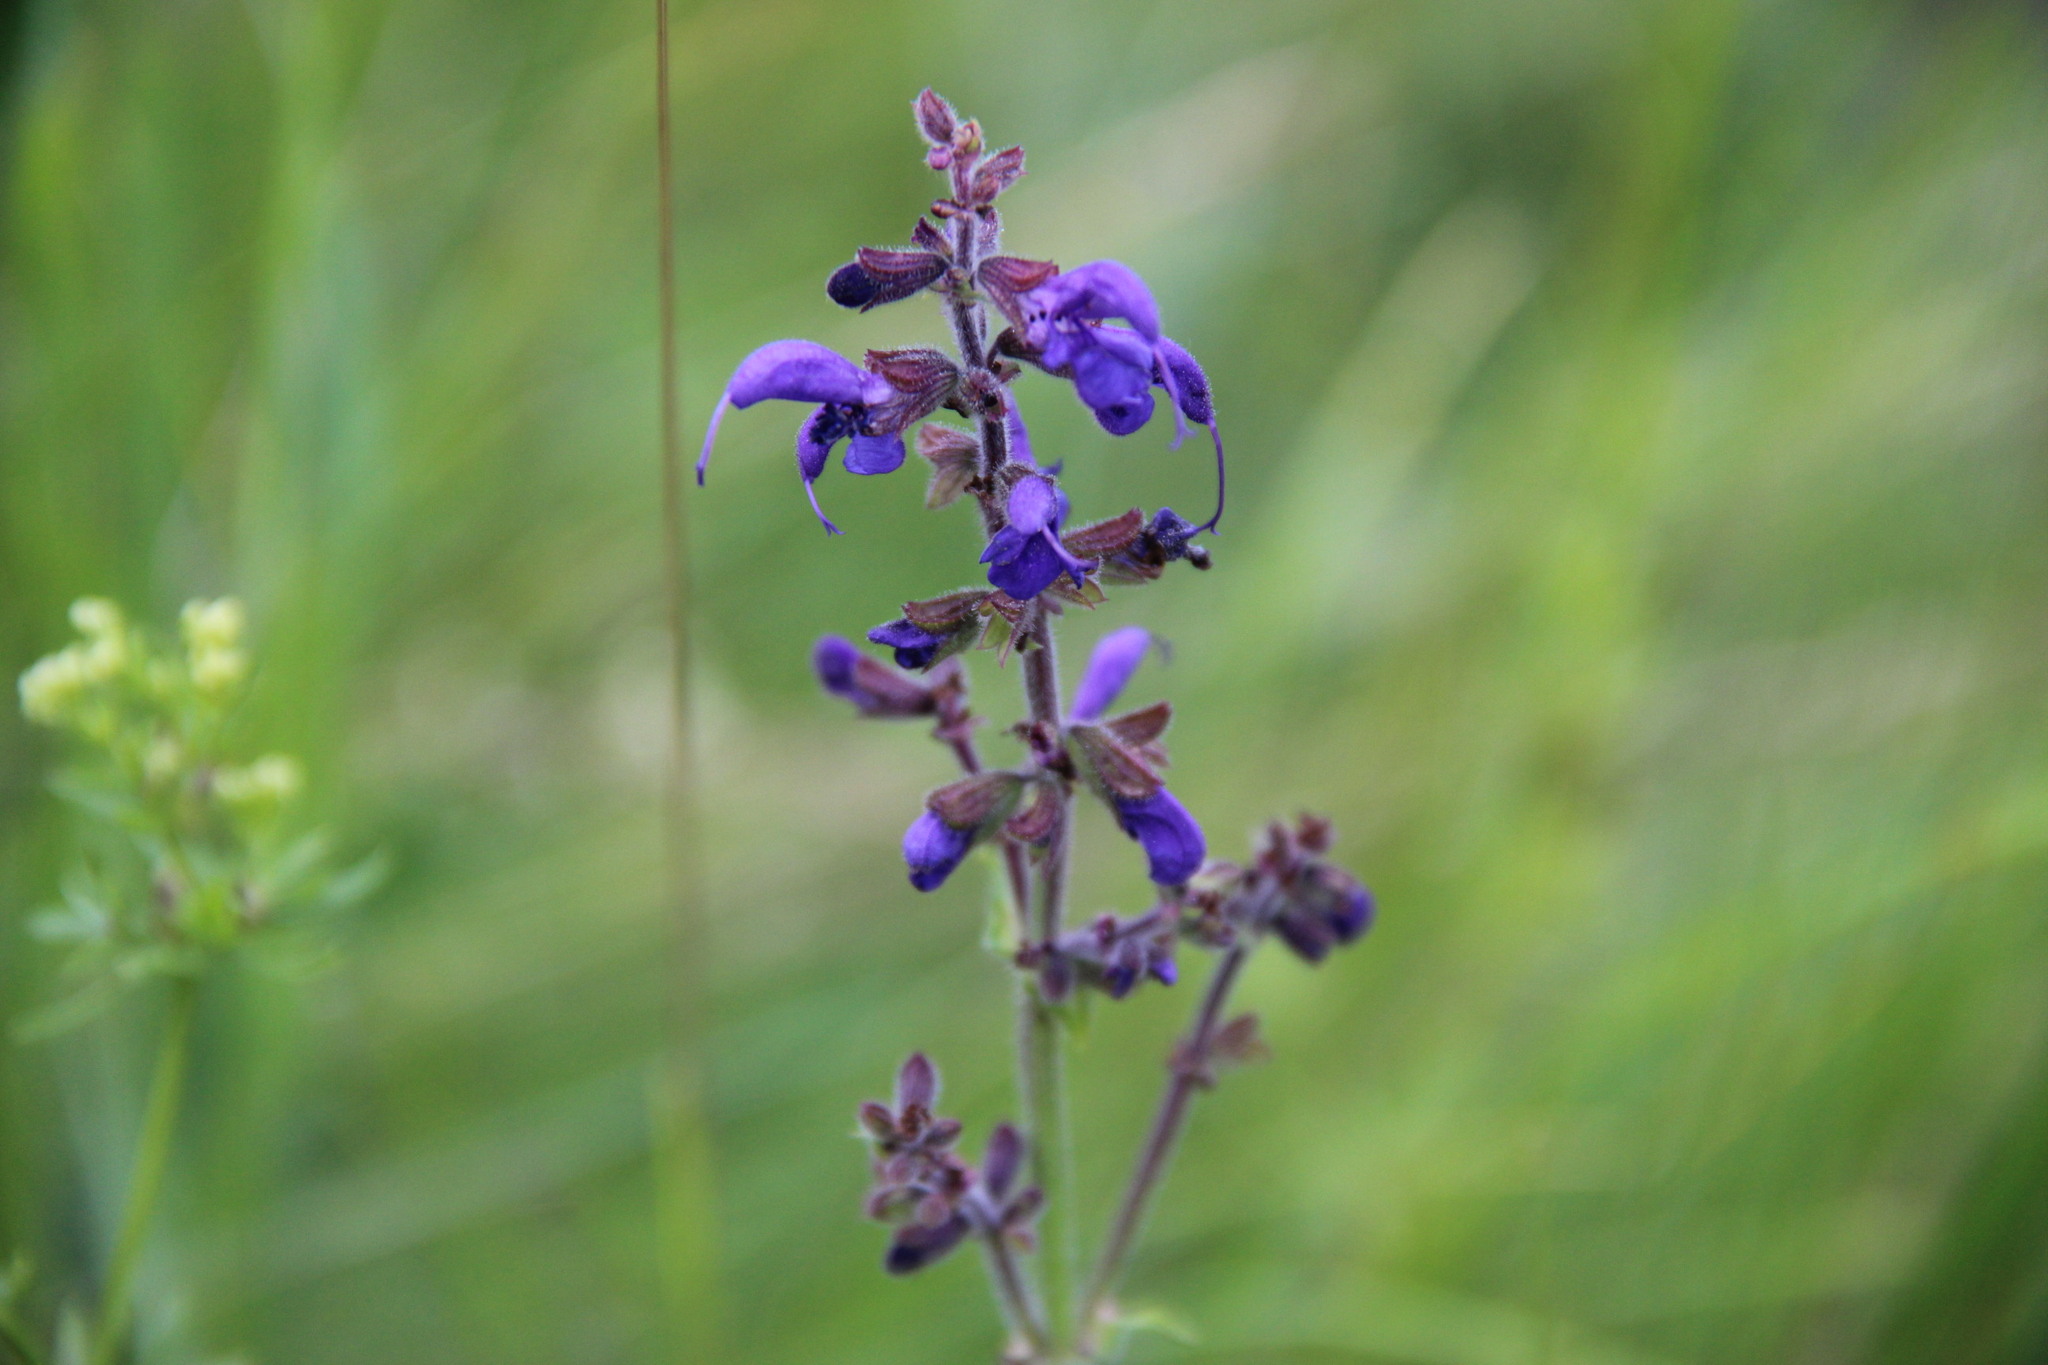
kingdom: Plantae
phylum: Tracheophyta
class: Magnoliopsida
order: Lamiales
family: Lamiaceae
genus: Salvia
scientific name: Salvia pratensis
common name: Meadow sage
